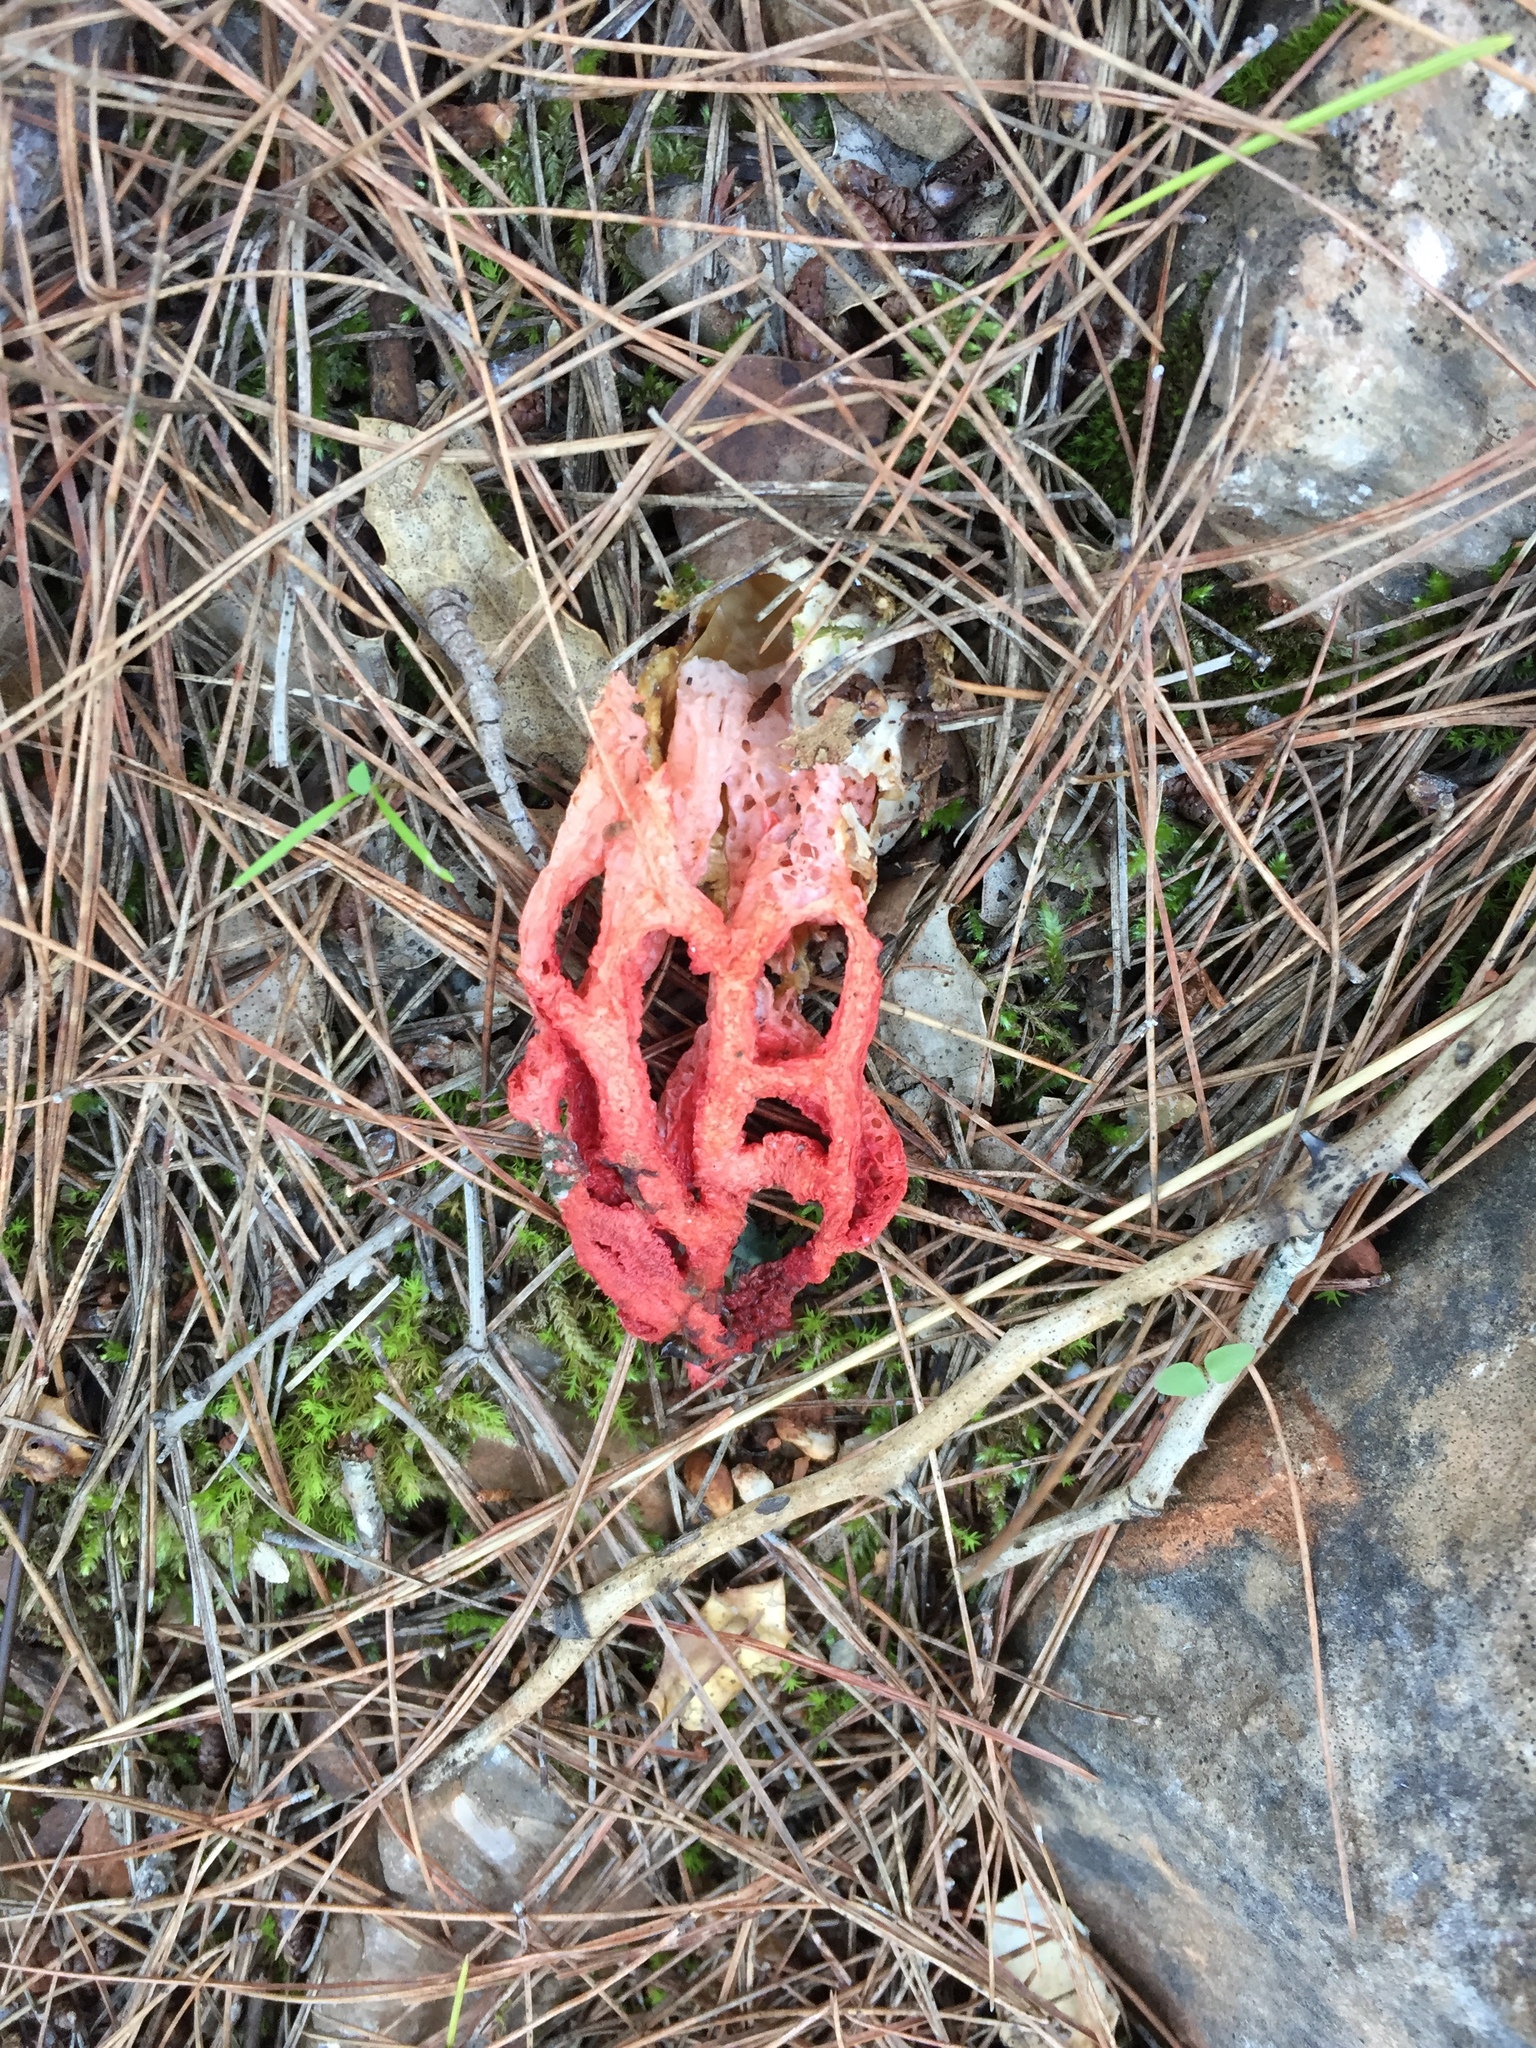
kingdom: Fungi
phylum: Basidiomycota
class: Agaricomycetes
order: Phallales
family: Phallaceae
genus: Clathrus
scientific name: Clathrus ruber
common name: Red cage
